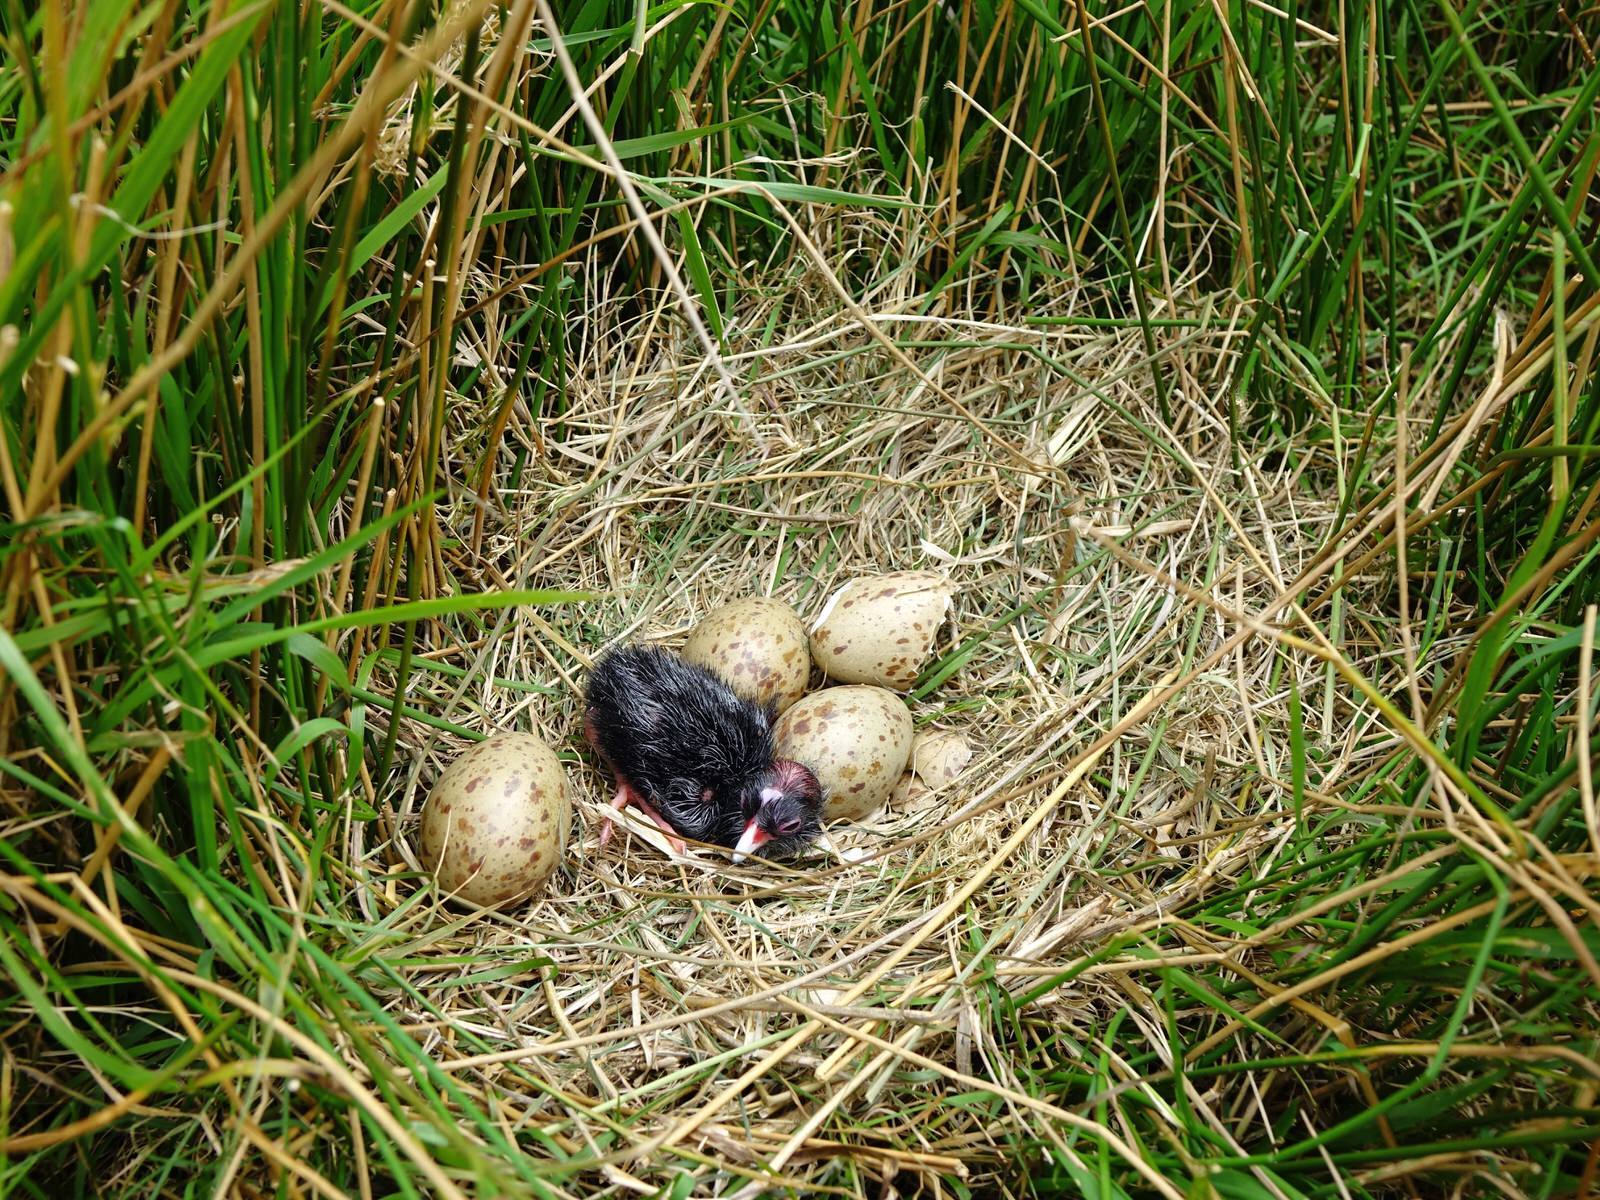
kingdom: Animalia
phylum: Chordata
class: Aves
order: Gruiformes
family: Rallidae
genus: Porphyrio
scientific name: Porphyrio melanotus
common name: Australasian swamphen
